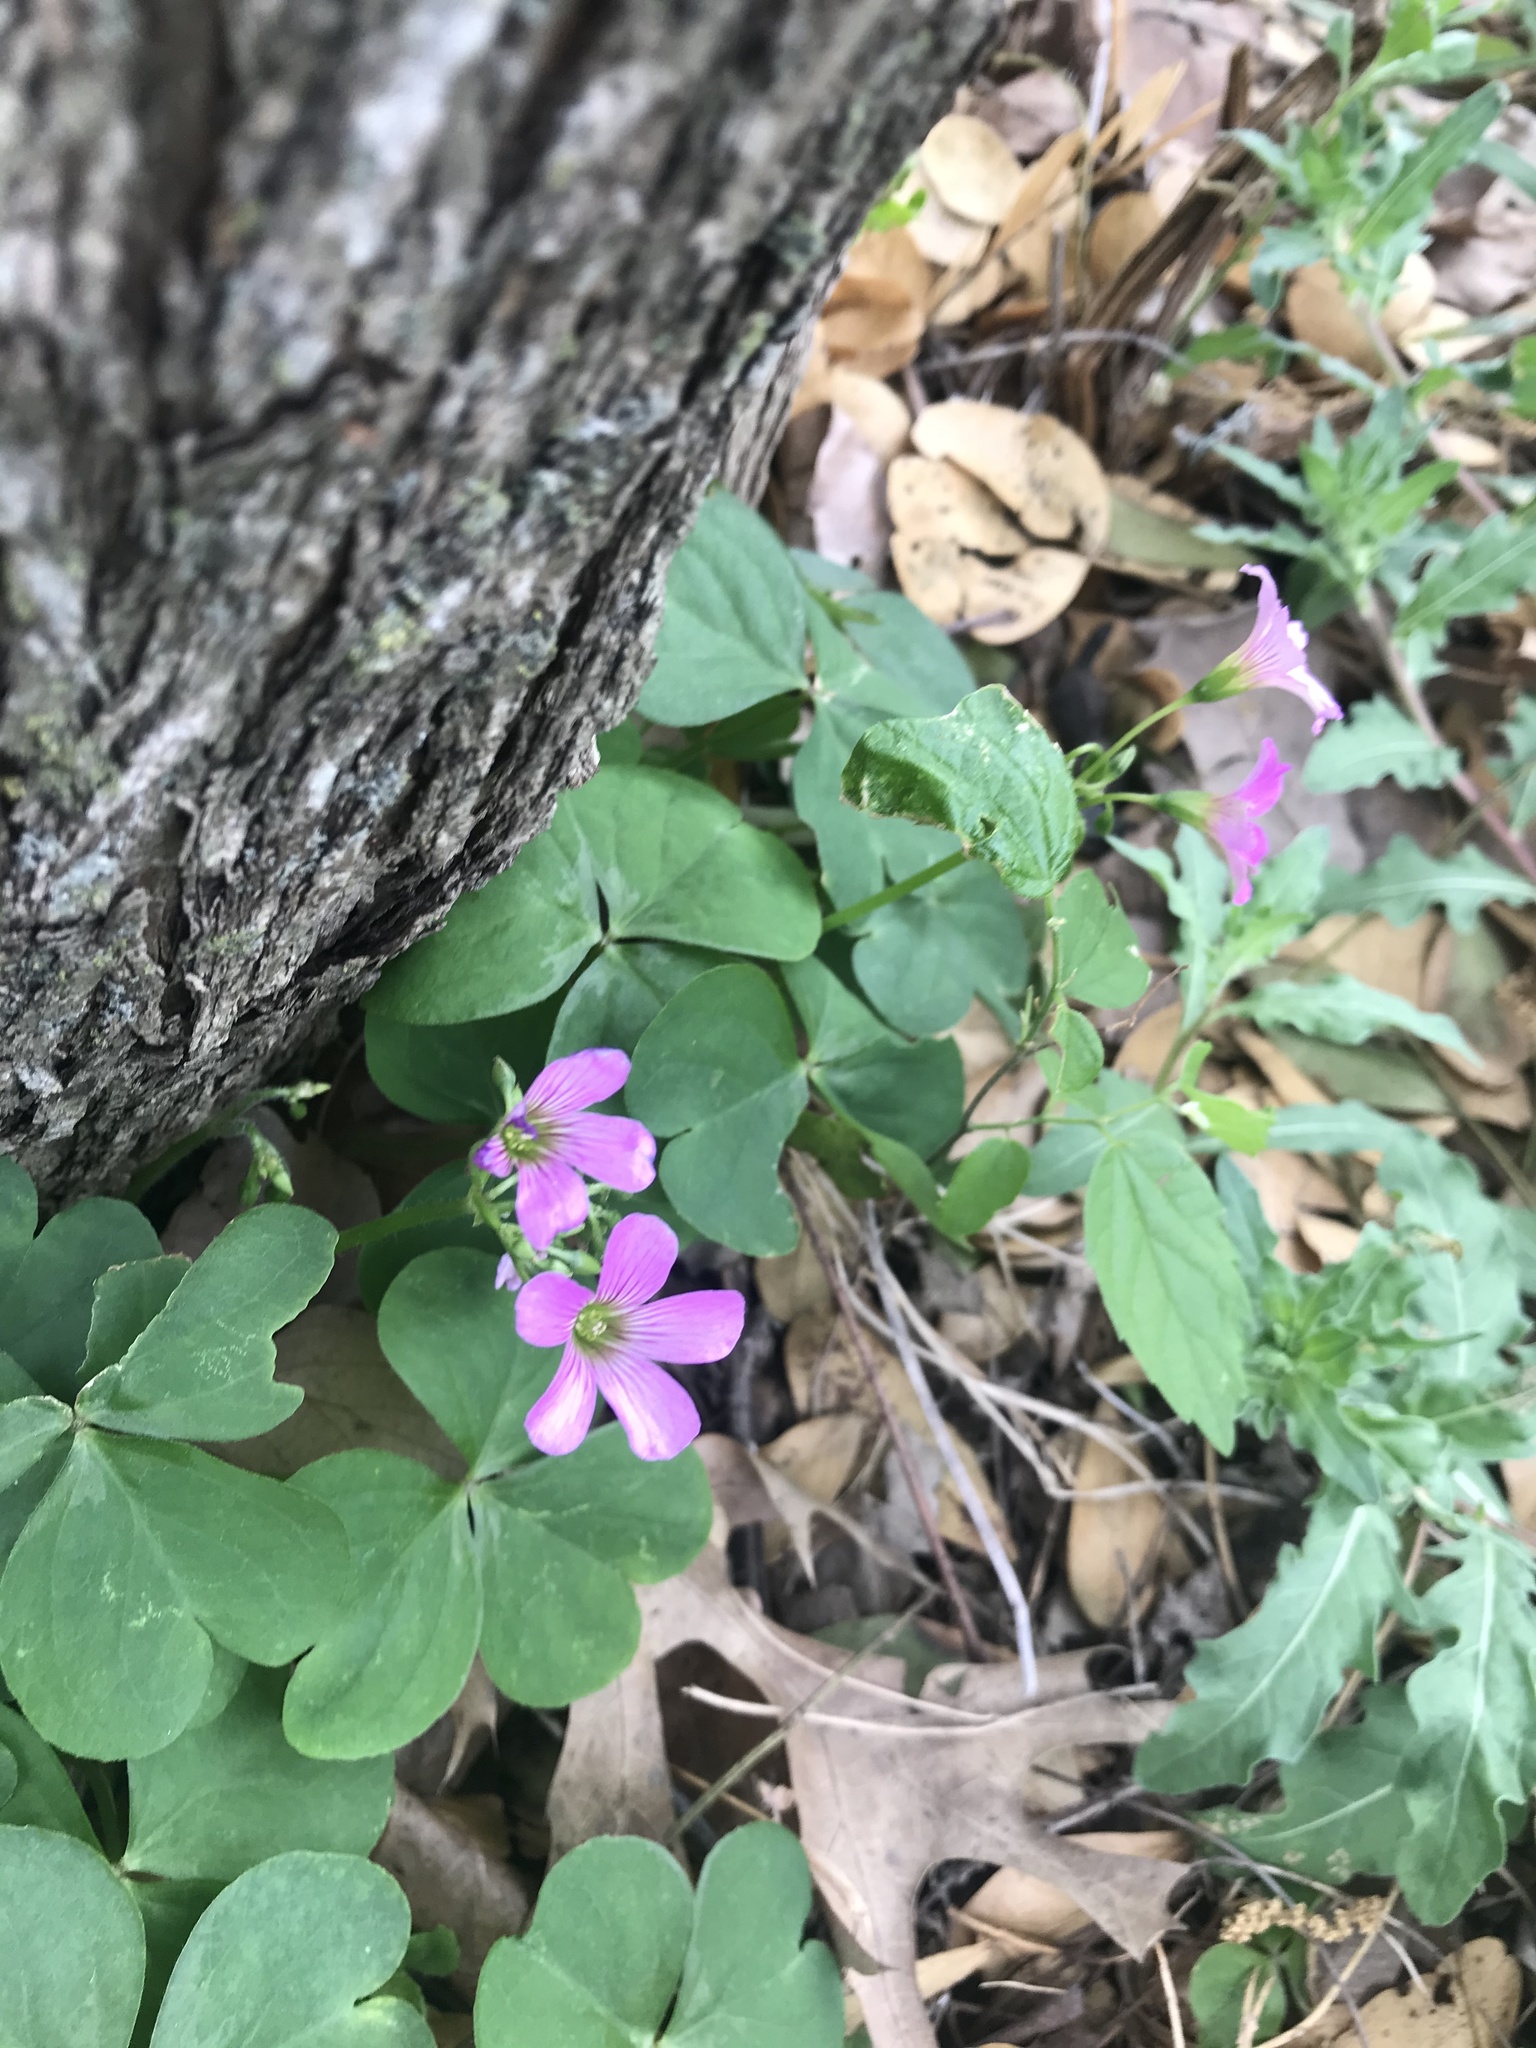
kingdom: Plantae
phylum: Tracheophyta
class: Magnoliopsida
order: Oxalidales
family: Oxalidaceae
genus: Oxalis
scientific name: Oxalis debilis
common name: Large-flowered pink-sorrel
